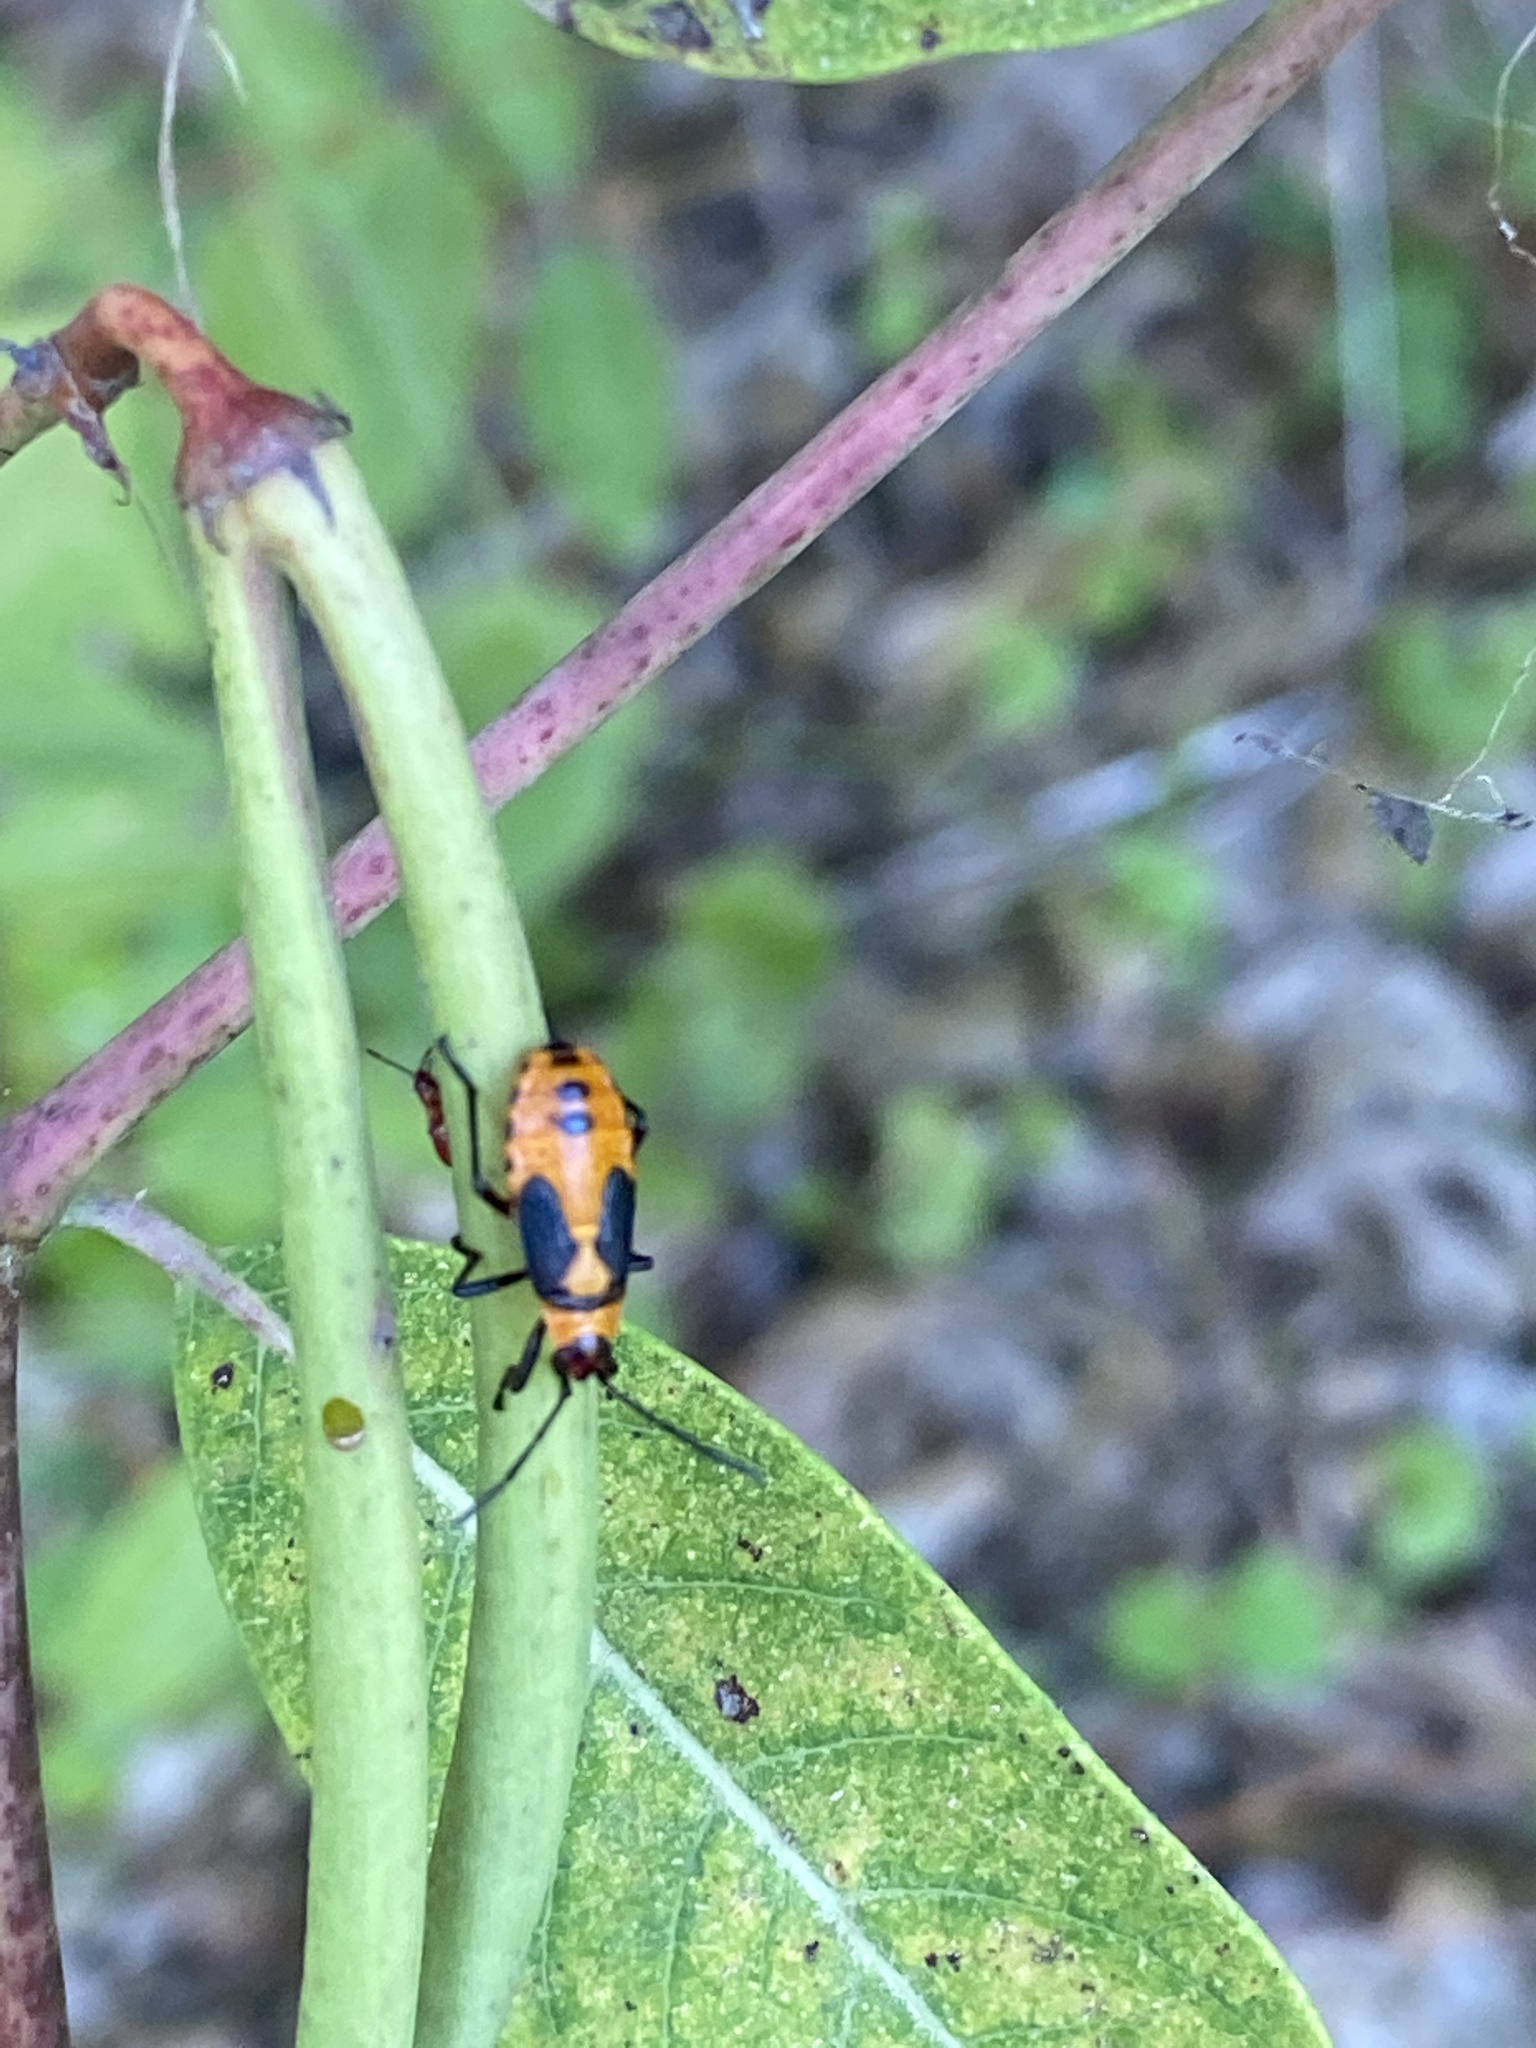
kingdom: Animalia
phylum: Arthropoda
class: Insecta
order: Hemiptera
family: Lygaeidae
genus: Oncopeltus
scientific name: Oncopeltus fasciatus
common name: Large milkweed bug
